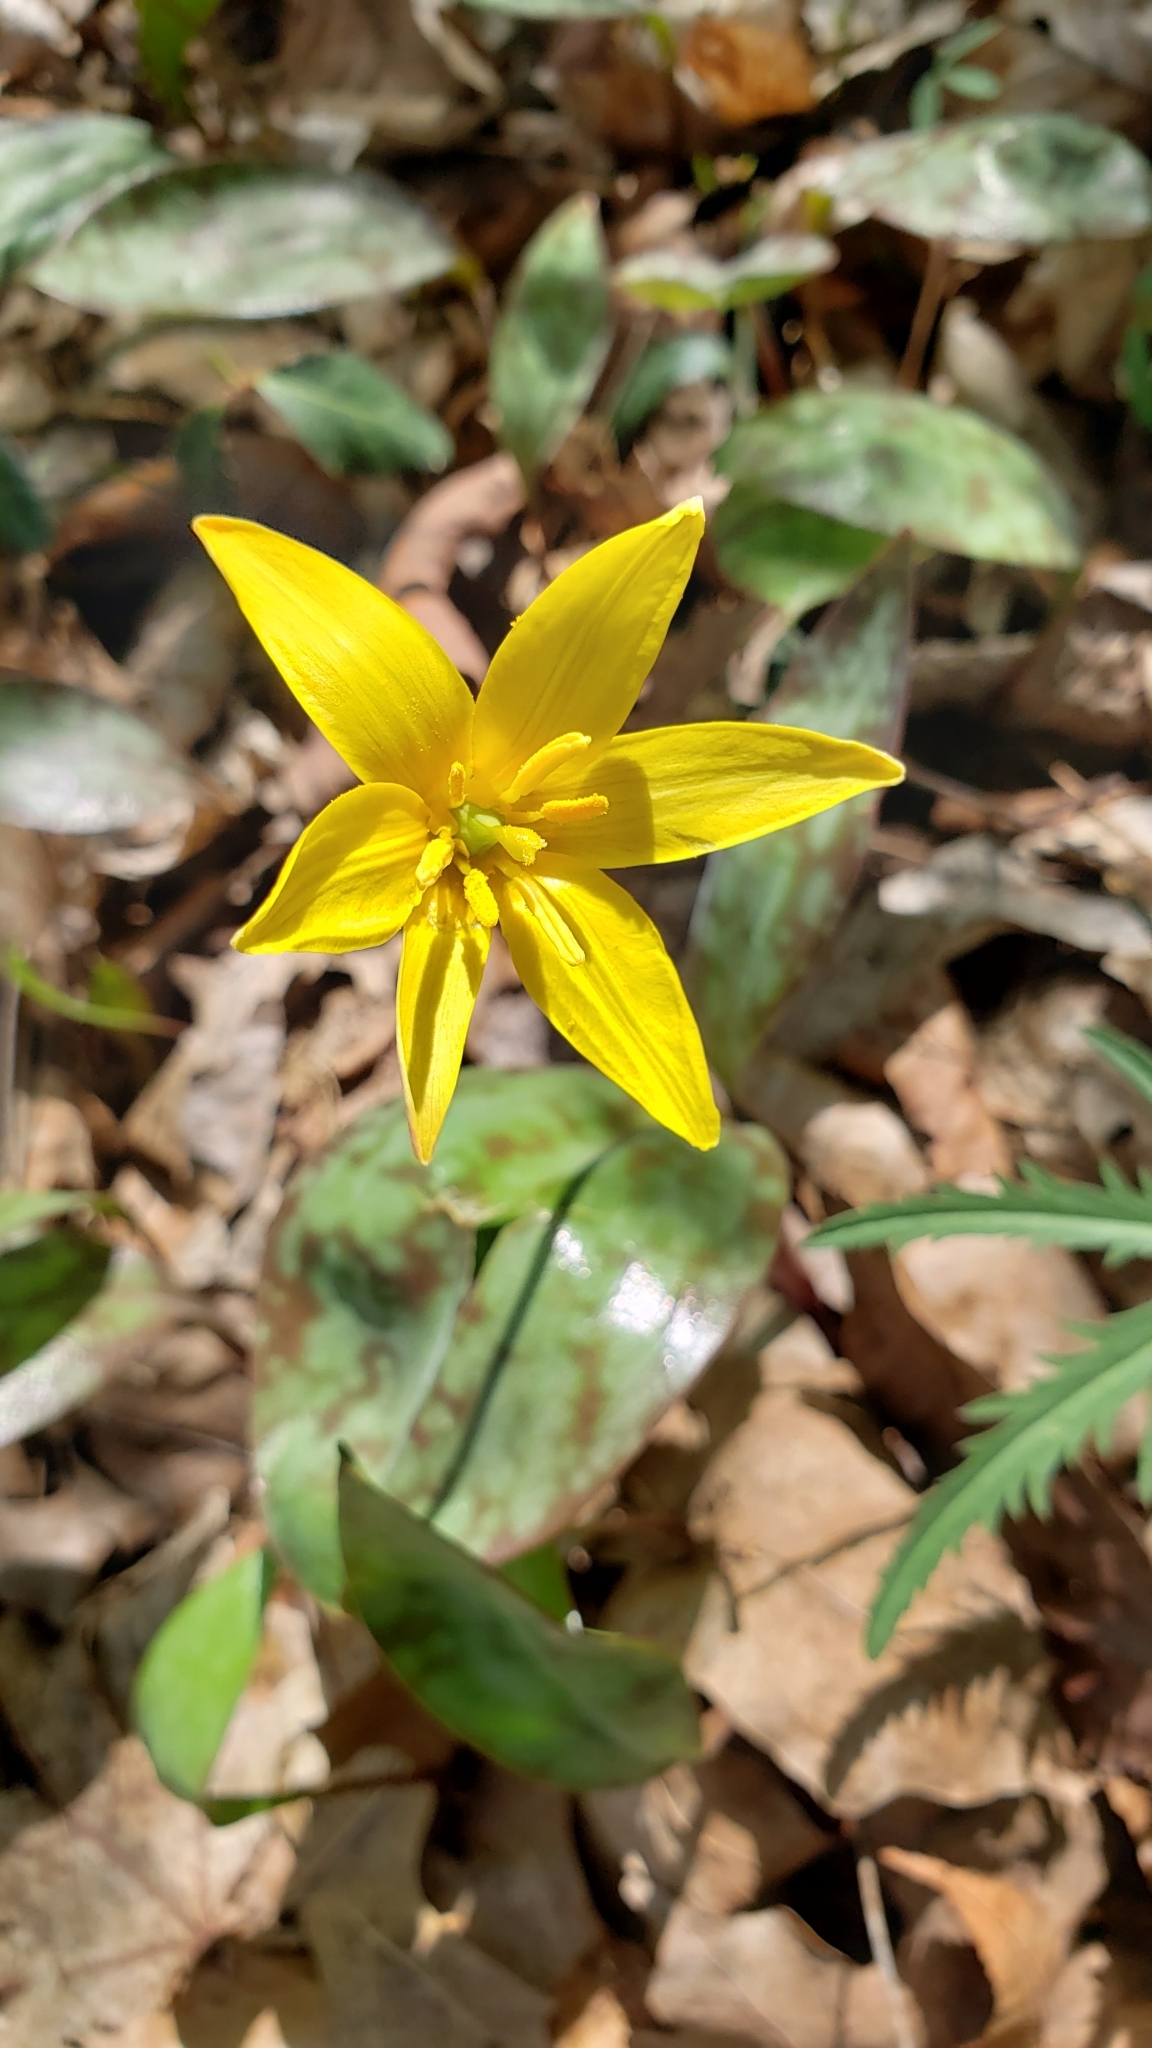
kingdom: Plantae
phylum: Tracheophyta
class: Liliopsida
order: Liliales
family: Liliaceae
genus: Erythronium
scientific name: Erythronium rostratum
